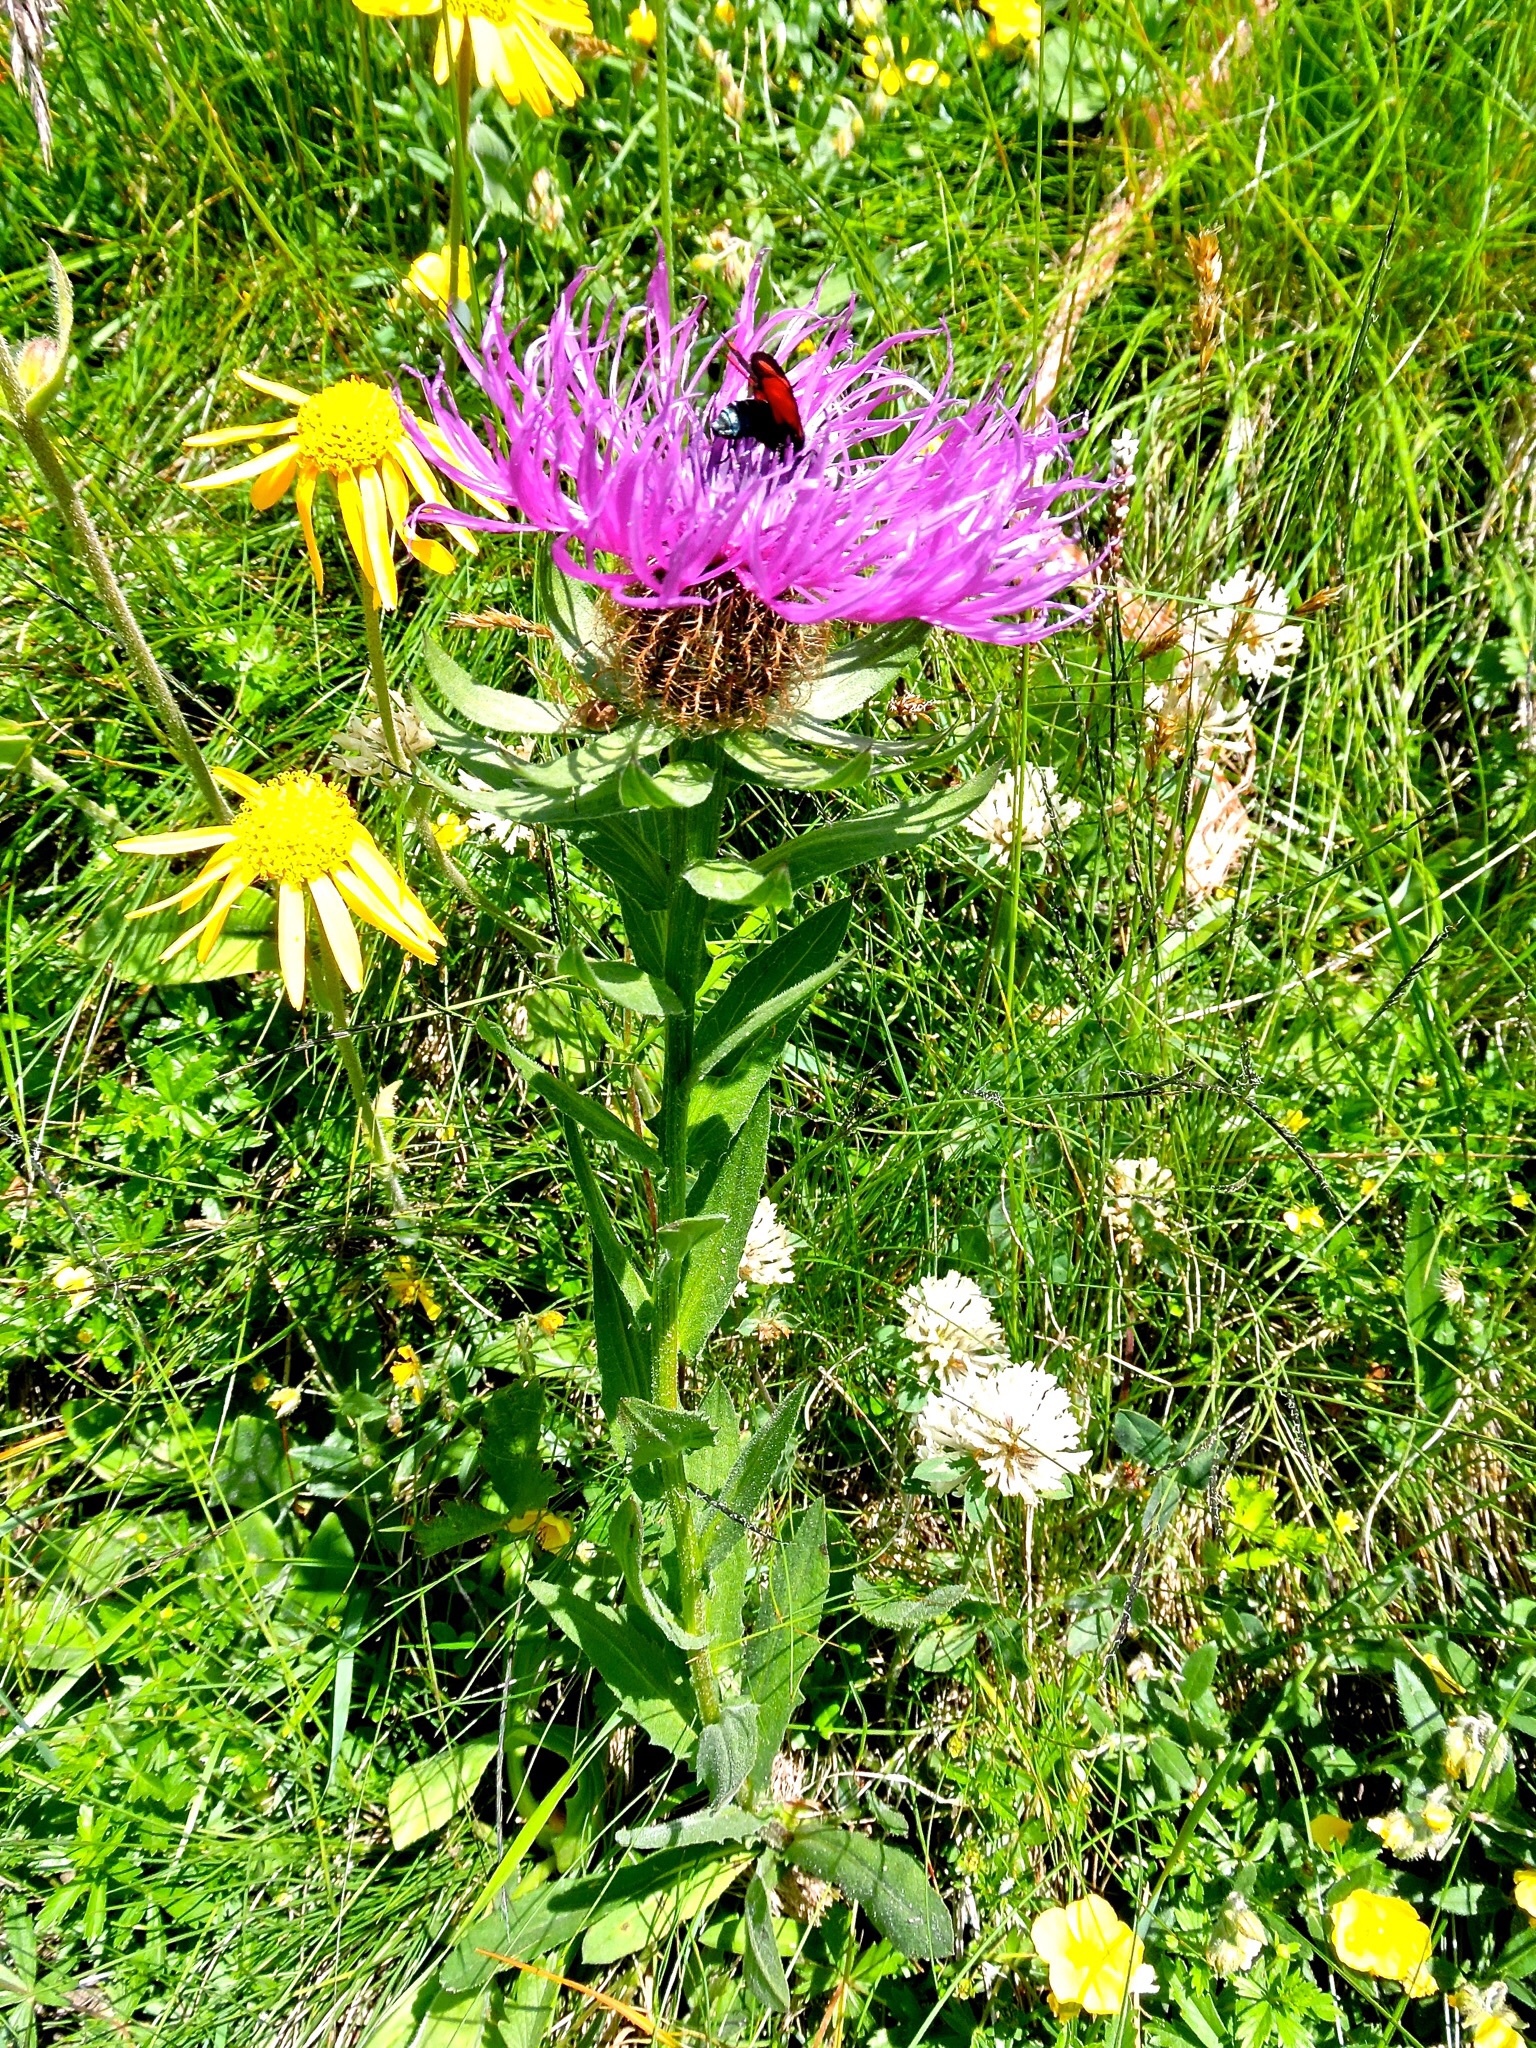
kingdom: Plantae
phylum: Tracheophyta
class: Magnoliopsida
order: Asterales
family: Asteraceae
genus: Centaurea
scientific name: Centaurea nervosa
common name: Singleflower knapweed
